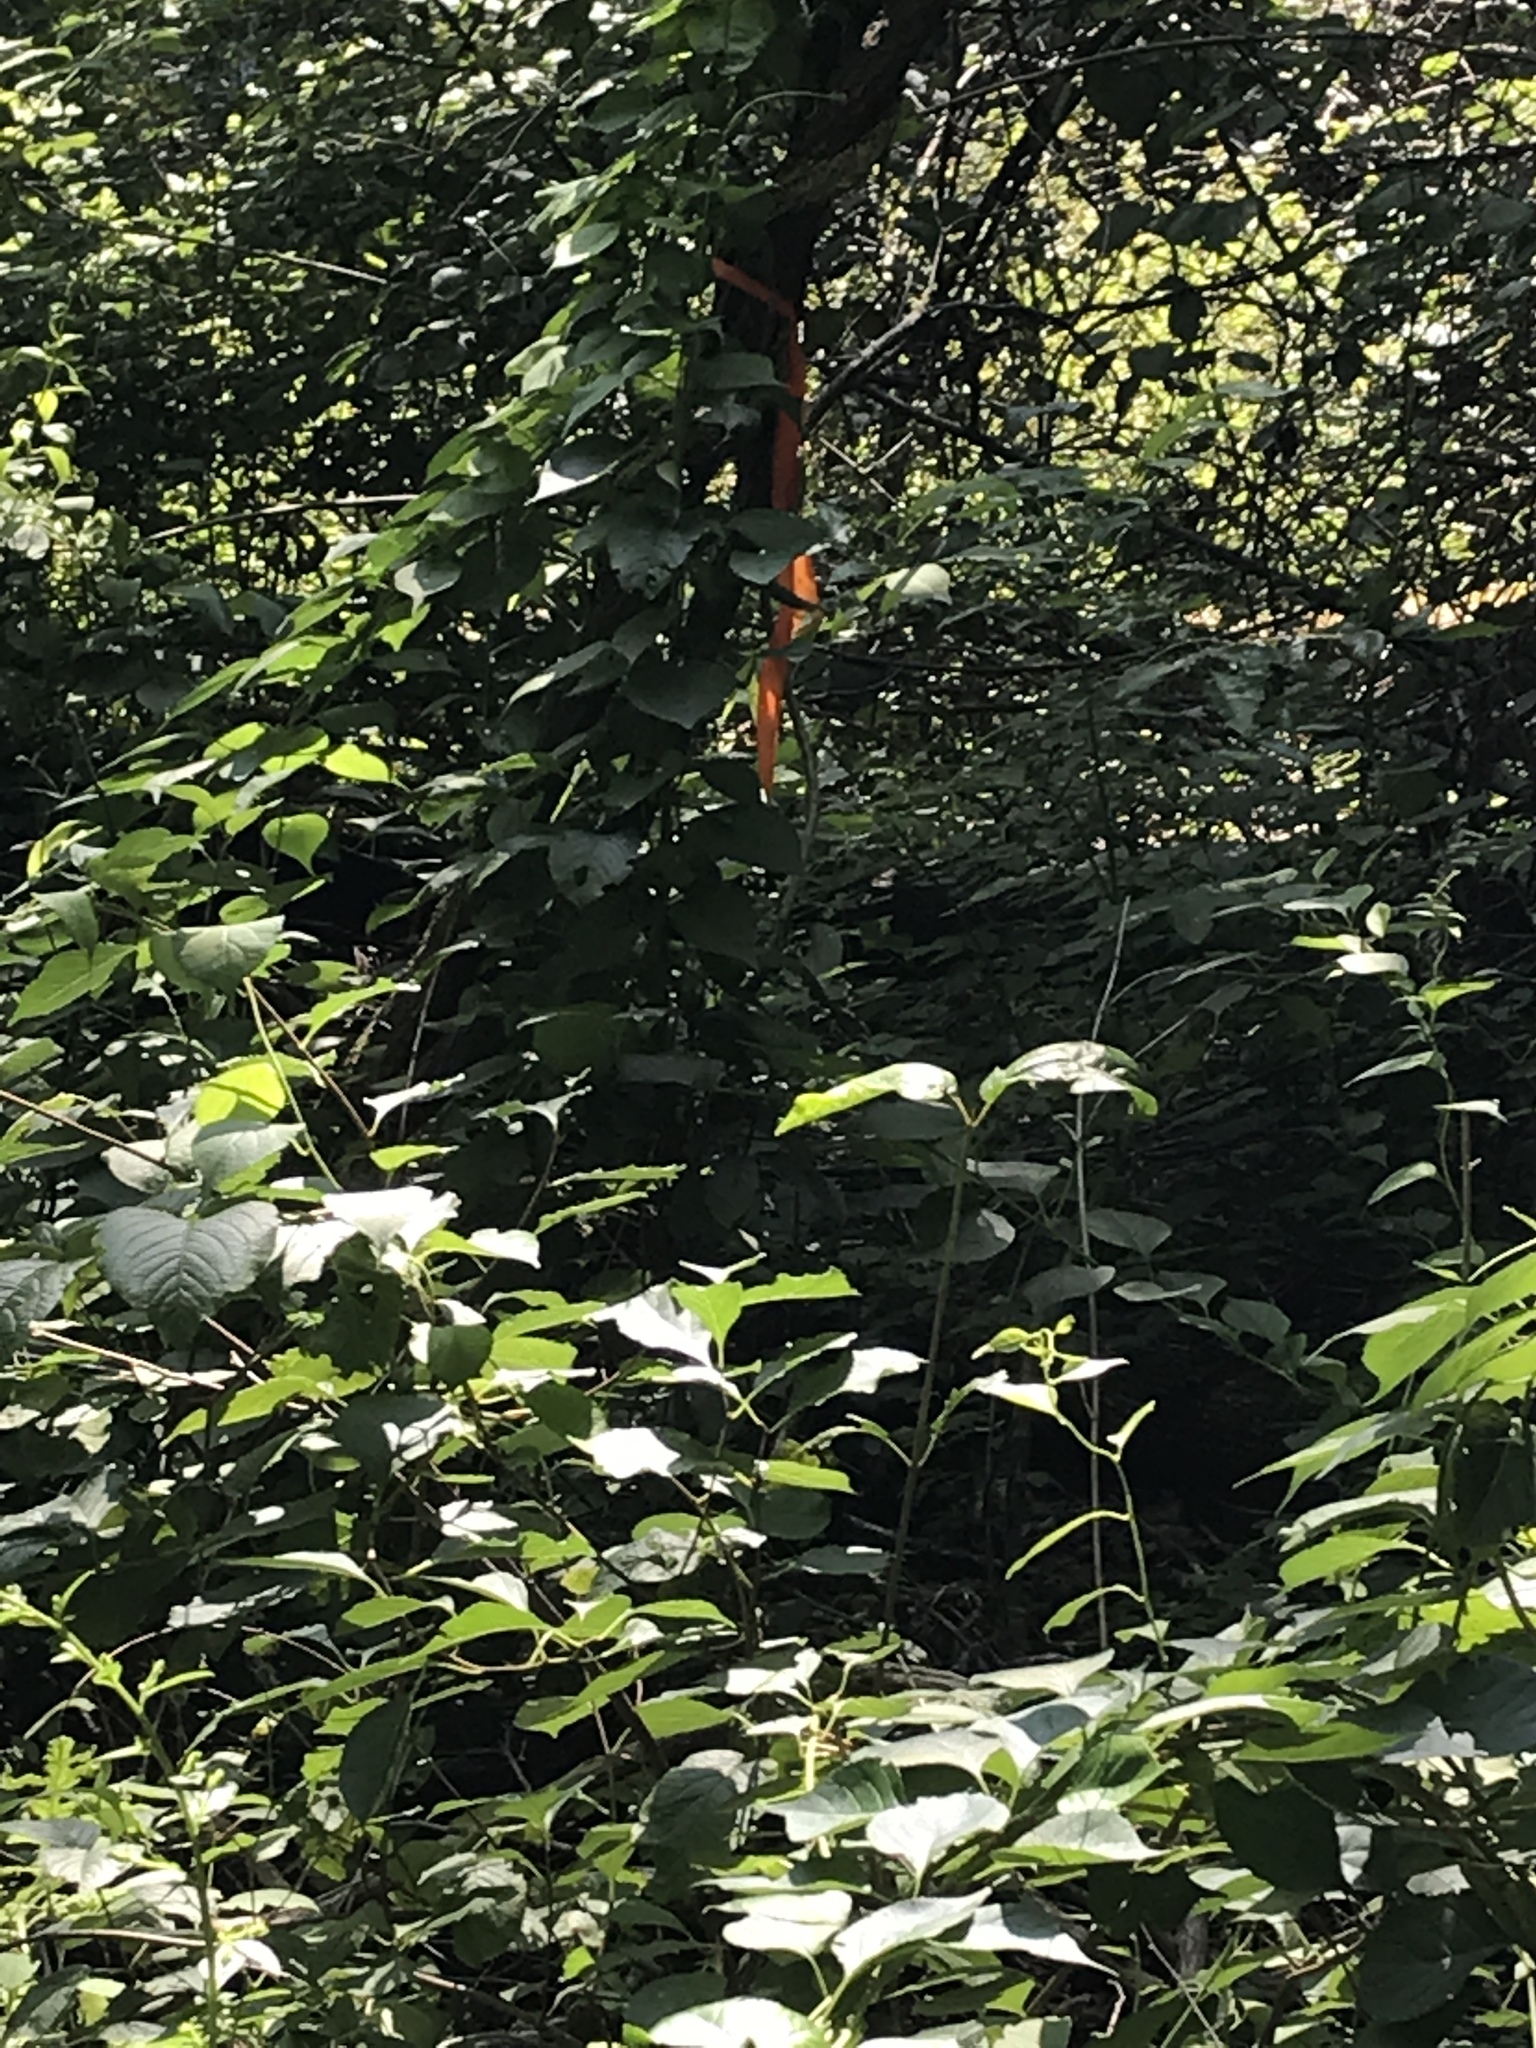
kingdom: Plantae
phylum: Tracheophyta
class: Magnoliopsida
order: Celastrales
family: Celastraceae
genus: Celastrus
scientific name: Celastrus orbiculatus
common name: Oriental bittersweet
